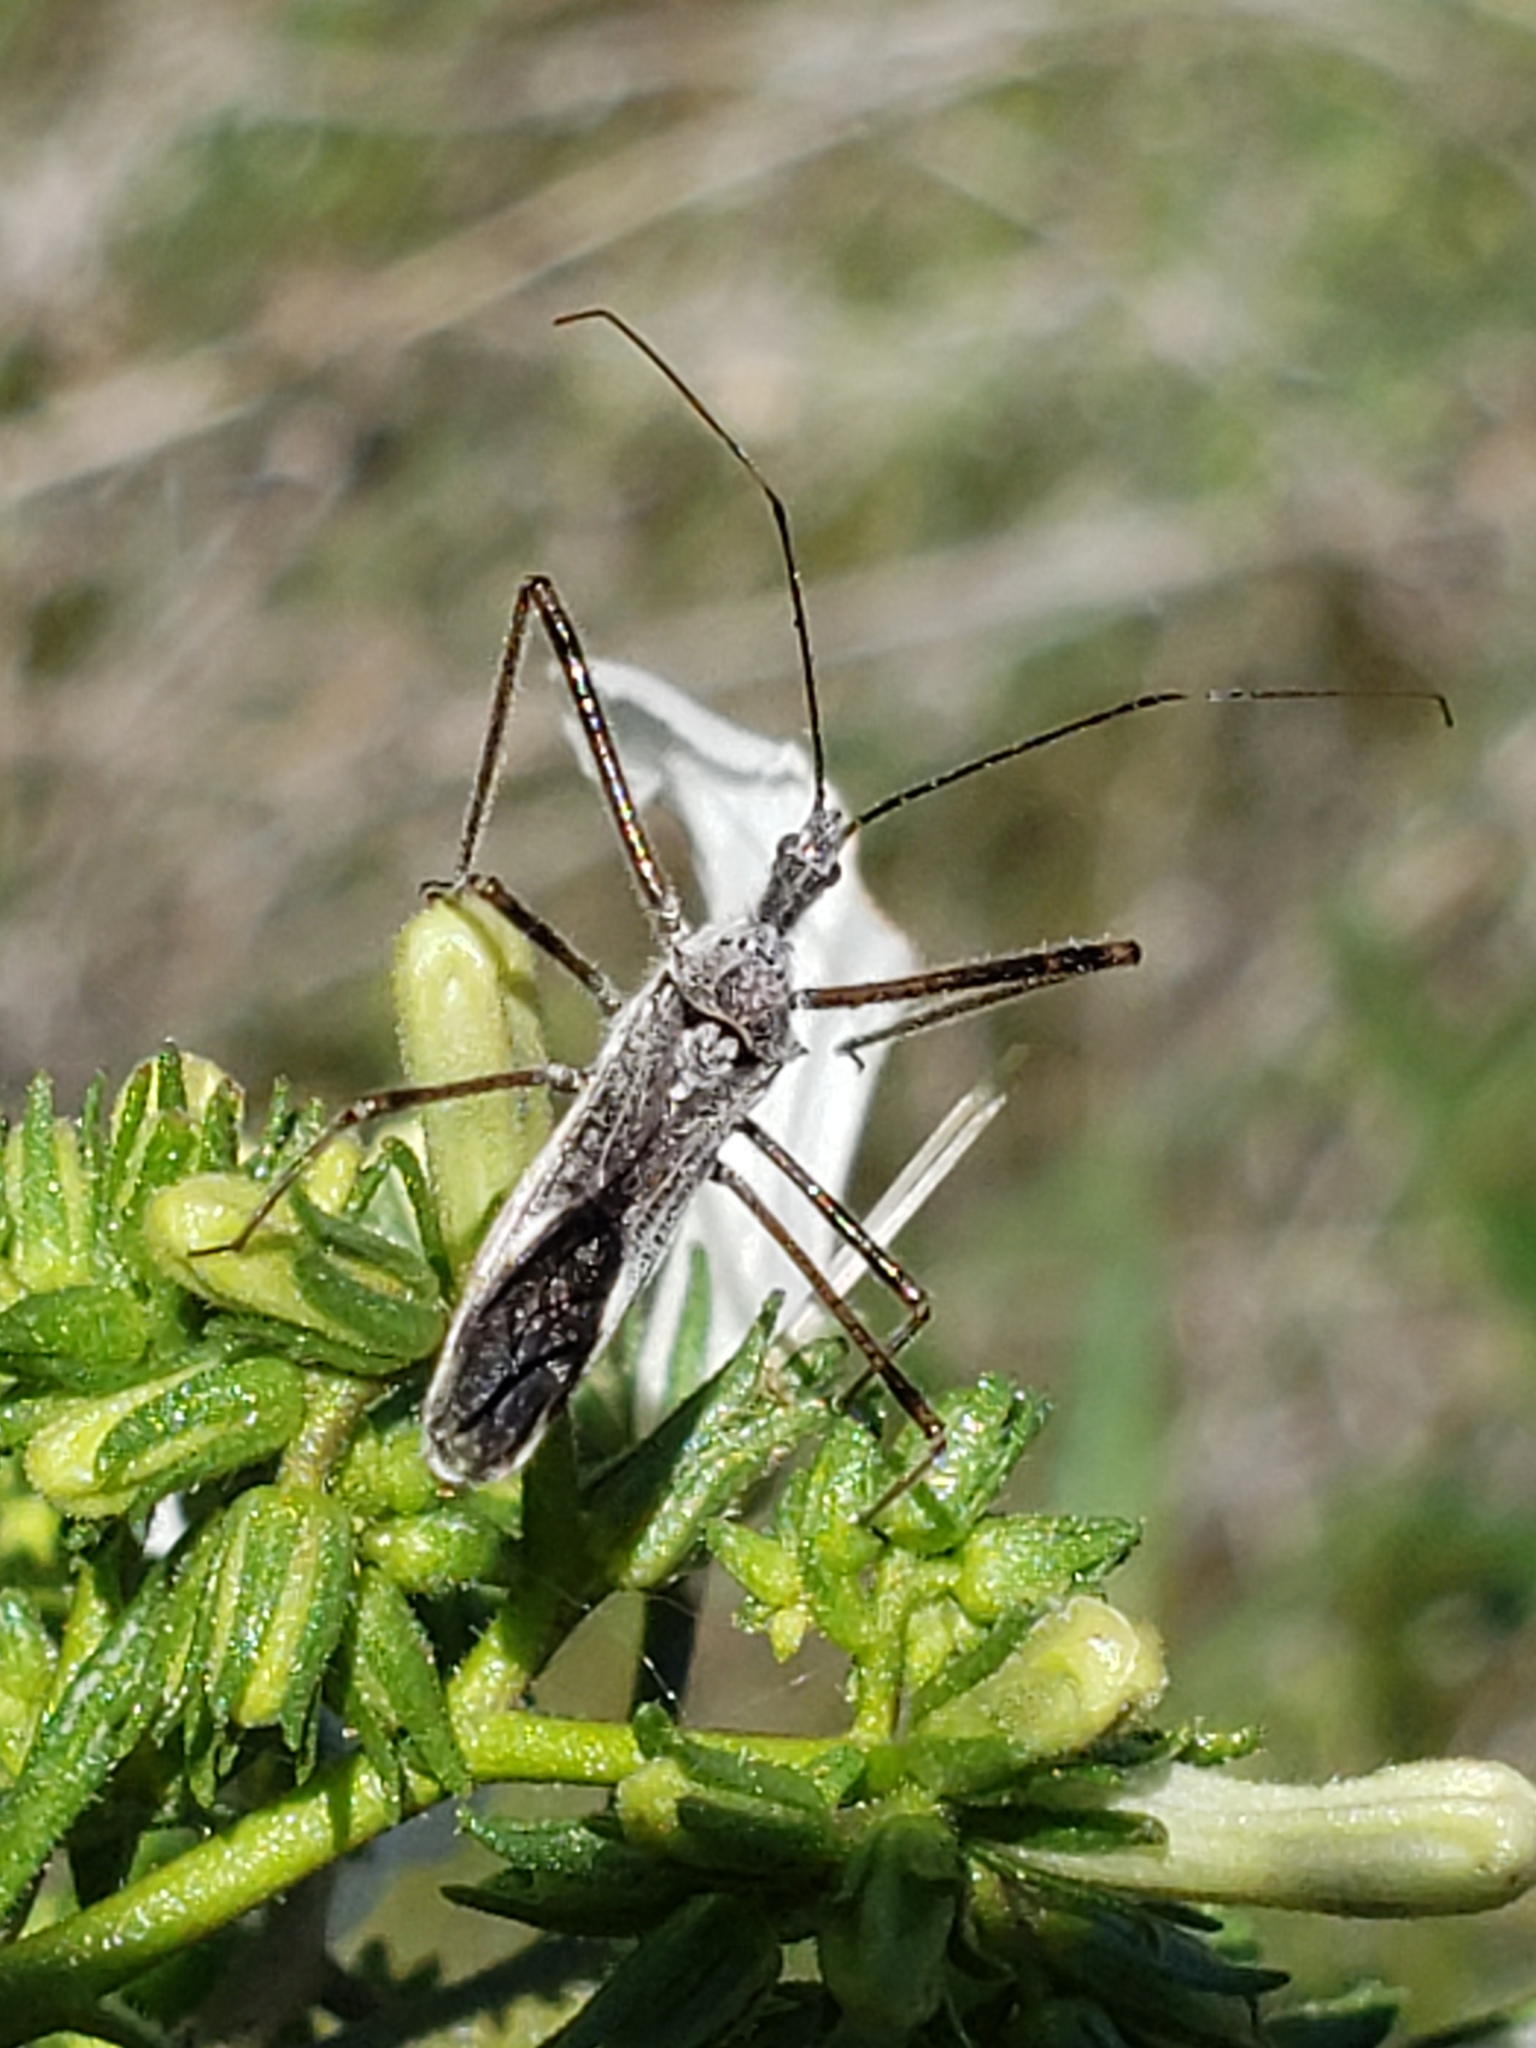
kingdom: Animalia
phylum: Arthropoda
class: Insecta
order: Hemiptera
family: Reduviidae
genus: Zelus
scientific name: Zelus tetracanthus
